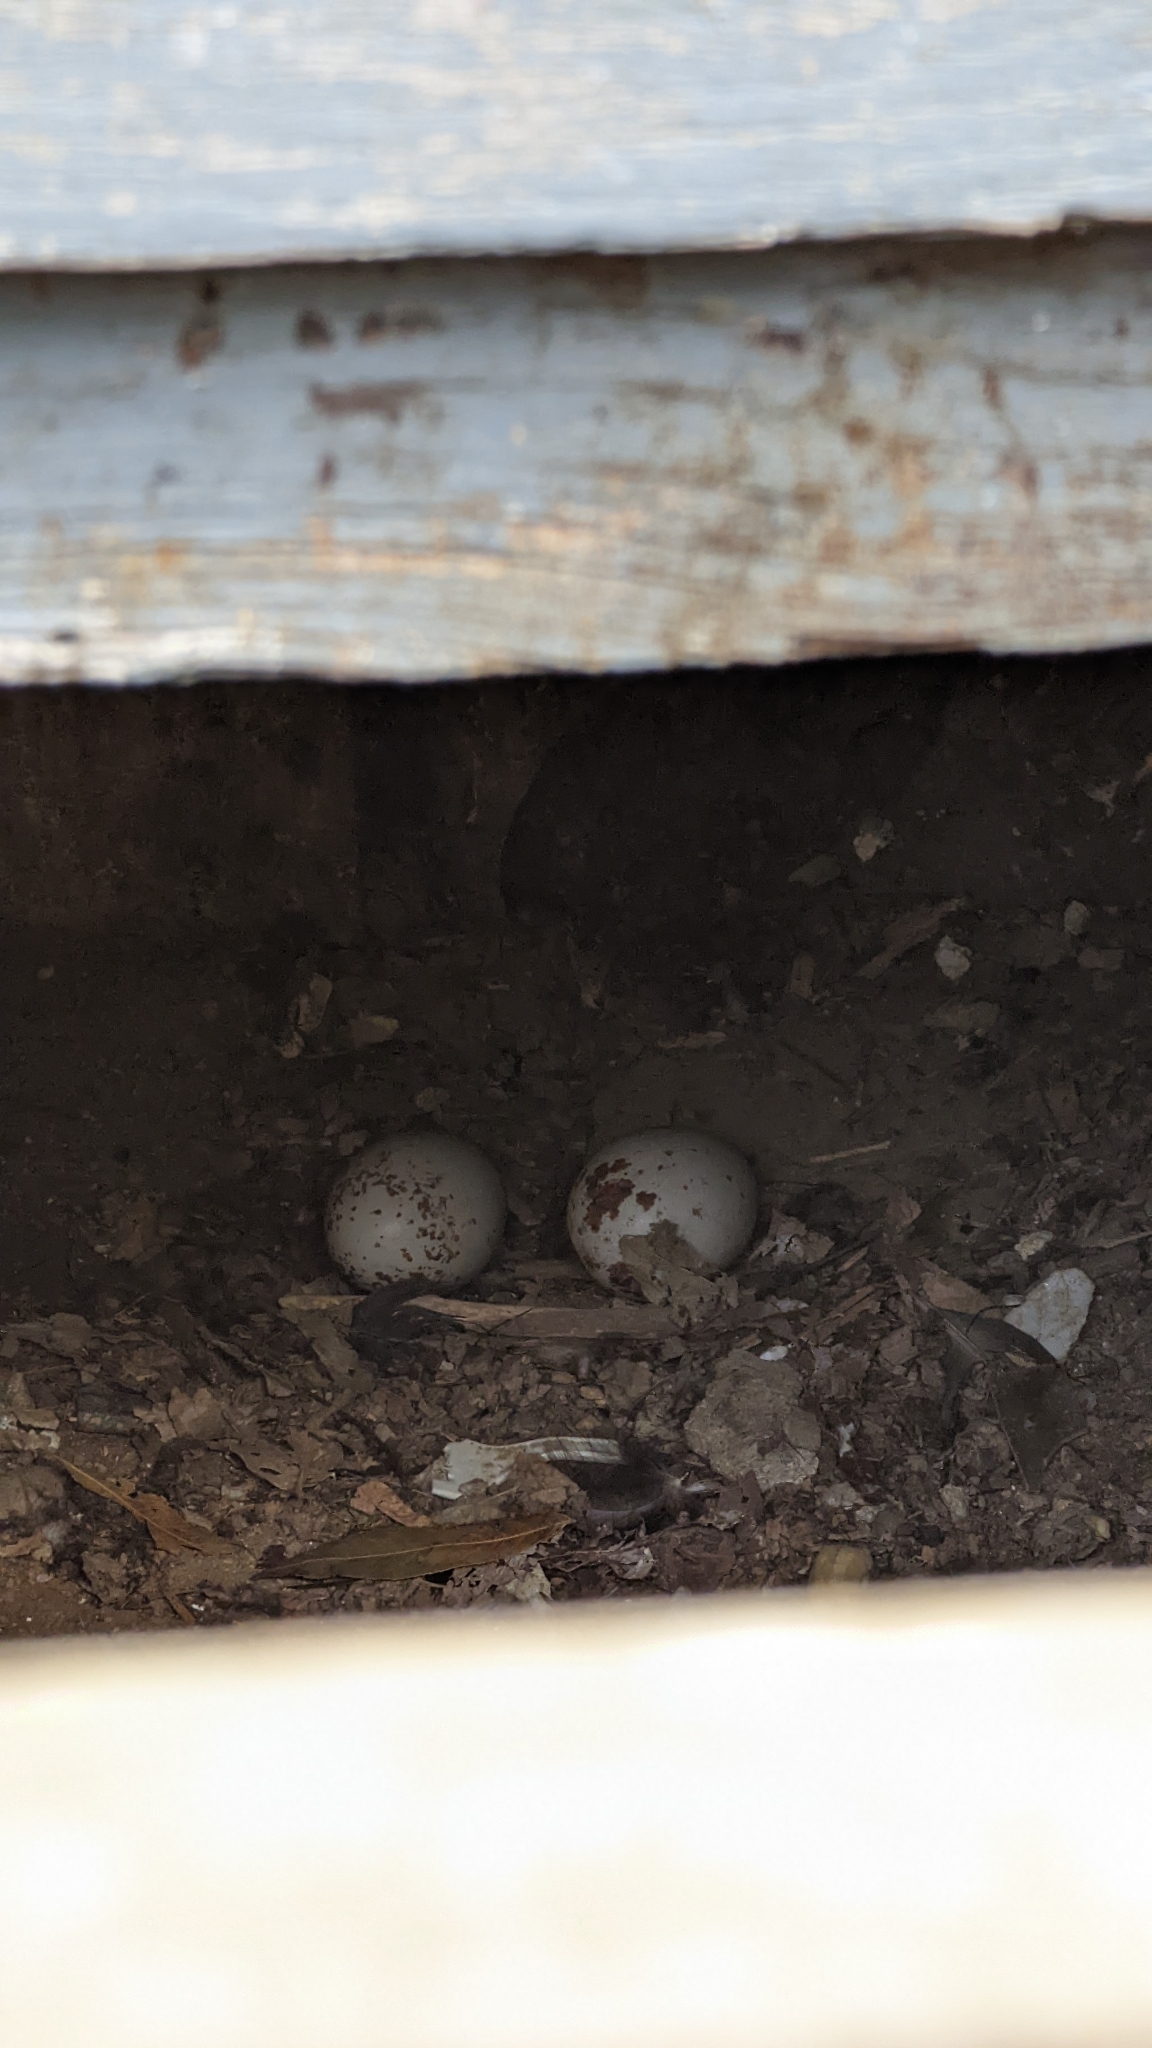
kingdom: Animalia
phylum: Chordata
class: Aves
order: Accipitriformes
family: Cathartidae
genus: Coragyps
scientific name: Coragyps atratus
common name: Black vulture
